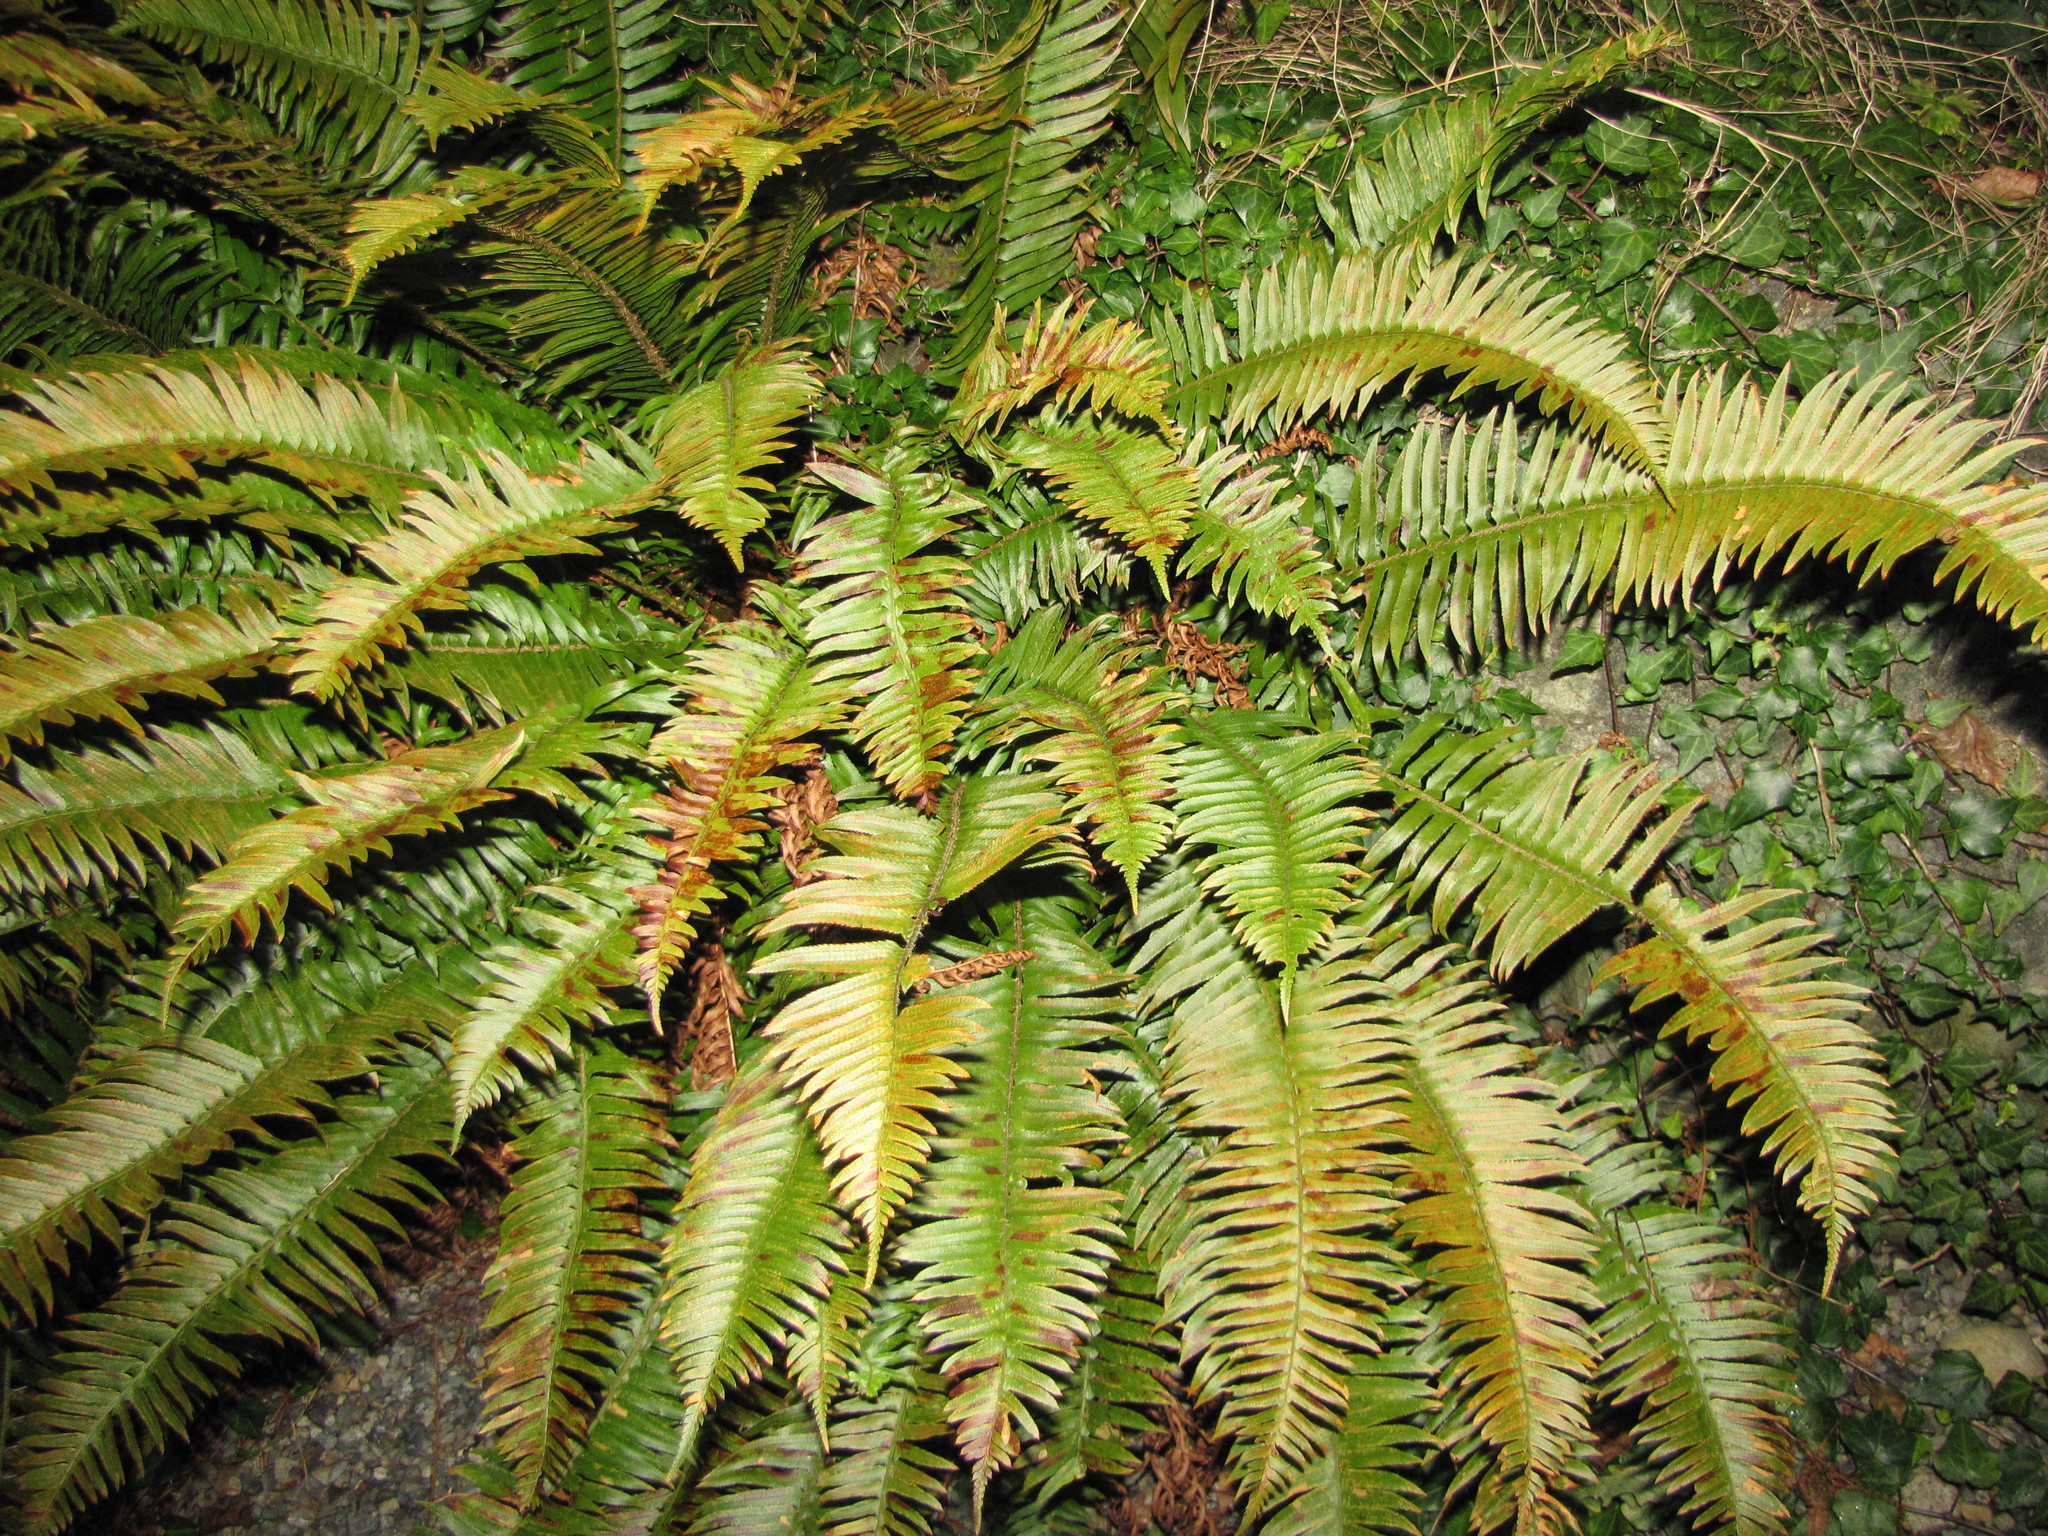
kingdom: Plantae
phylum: Tracheophyta
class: Polypodiopsida
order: Polypodiales
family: Dryopteridaceae
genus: Polystichum
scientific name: Polystichum munitum
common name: Western sword-fern
